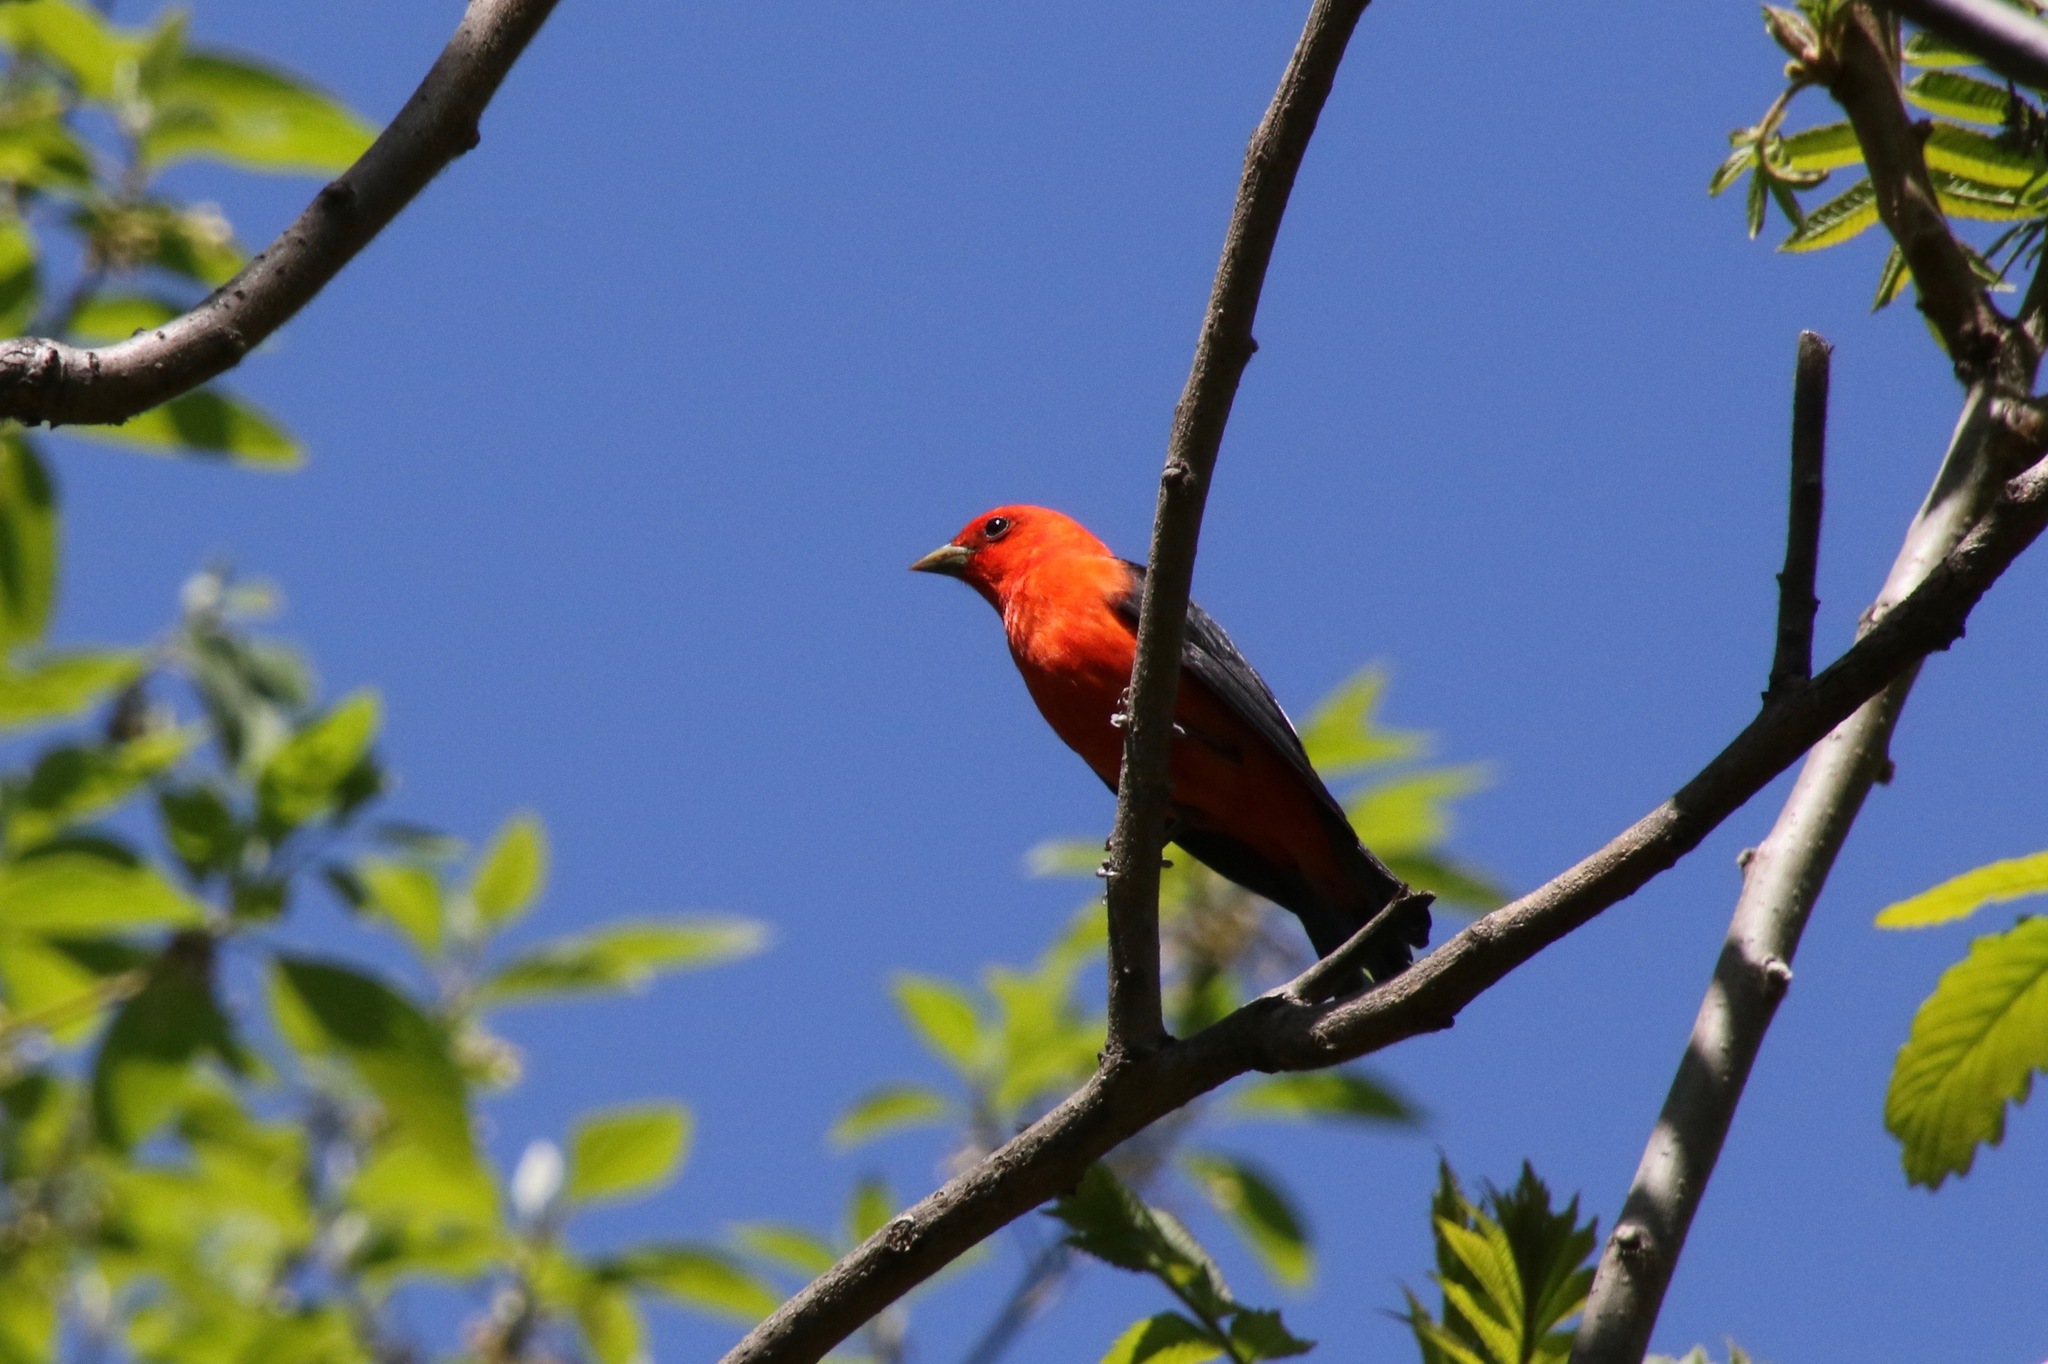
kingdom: Animalia
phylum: Chordata
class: Aves
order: Passeriformes
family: Cardinalidae
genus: Piranga
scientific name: Piranga olivacea
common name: Scarlet tanager
